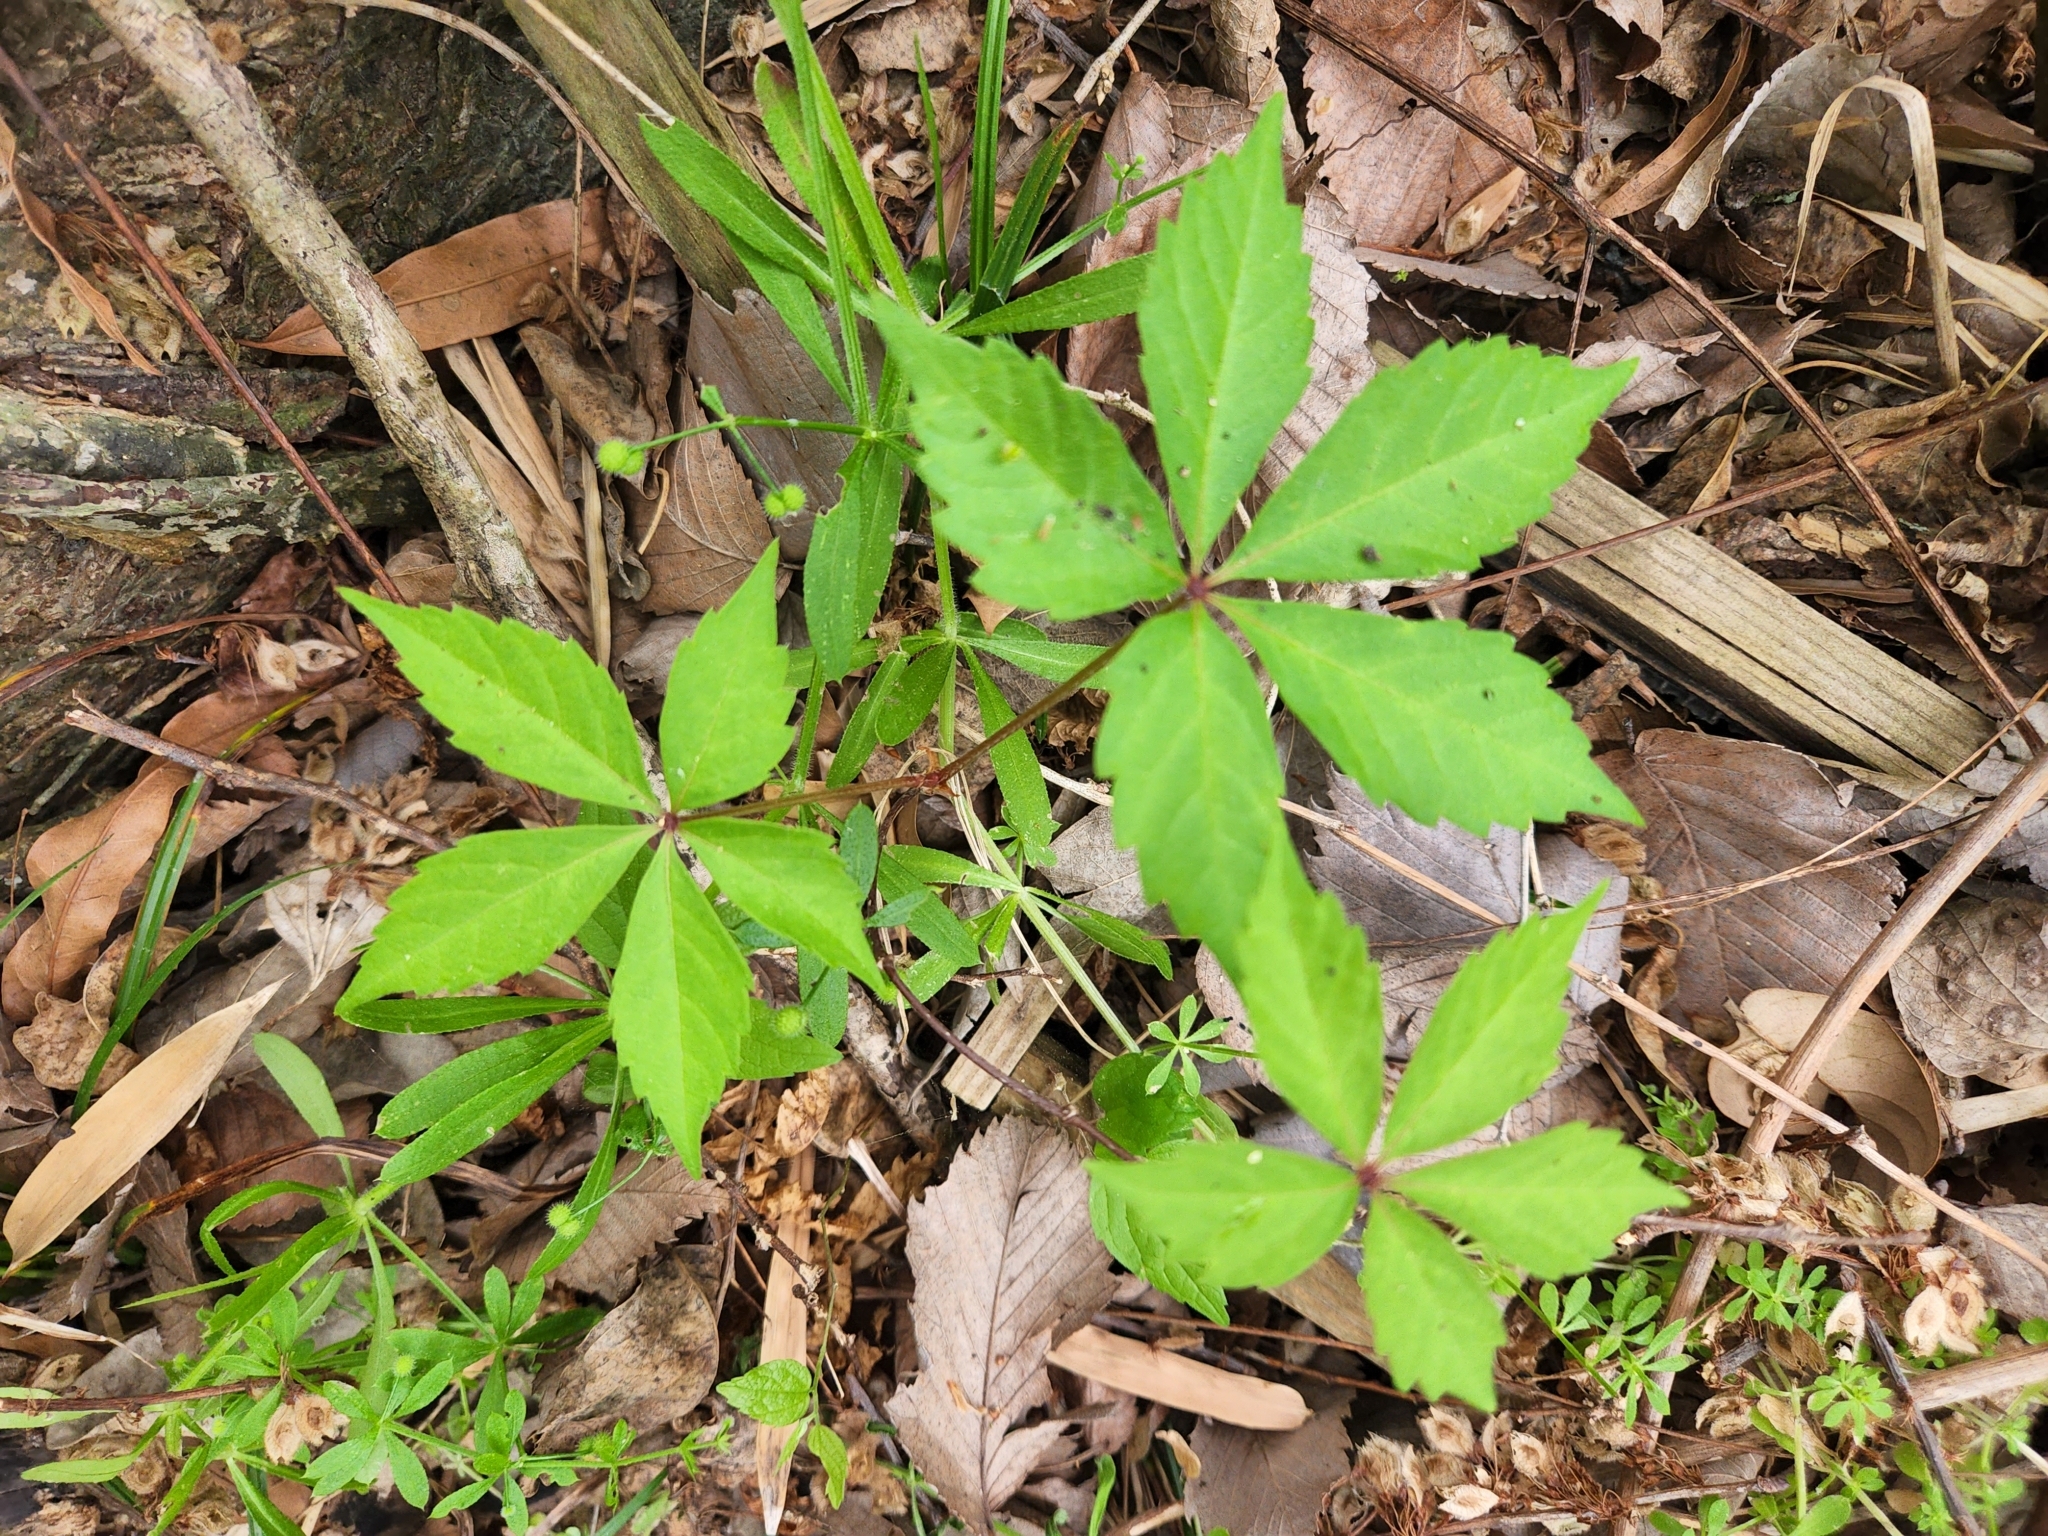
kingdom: Plantae
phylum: Tracheophyta
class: Magnoliopsida
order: Vitales
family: Vitaceae
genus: Parthenocissus
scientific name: Parthenocissus quinquefolia
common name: Virginia-creeper
